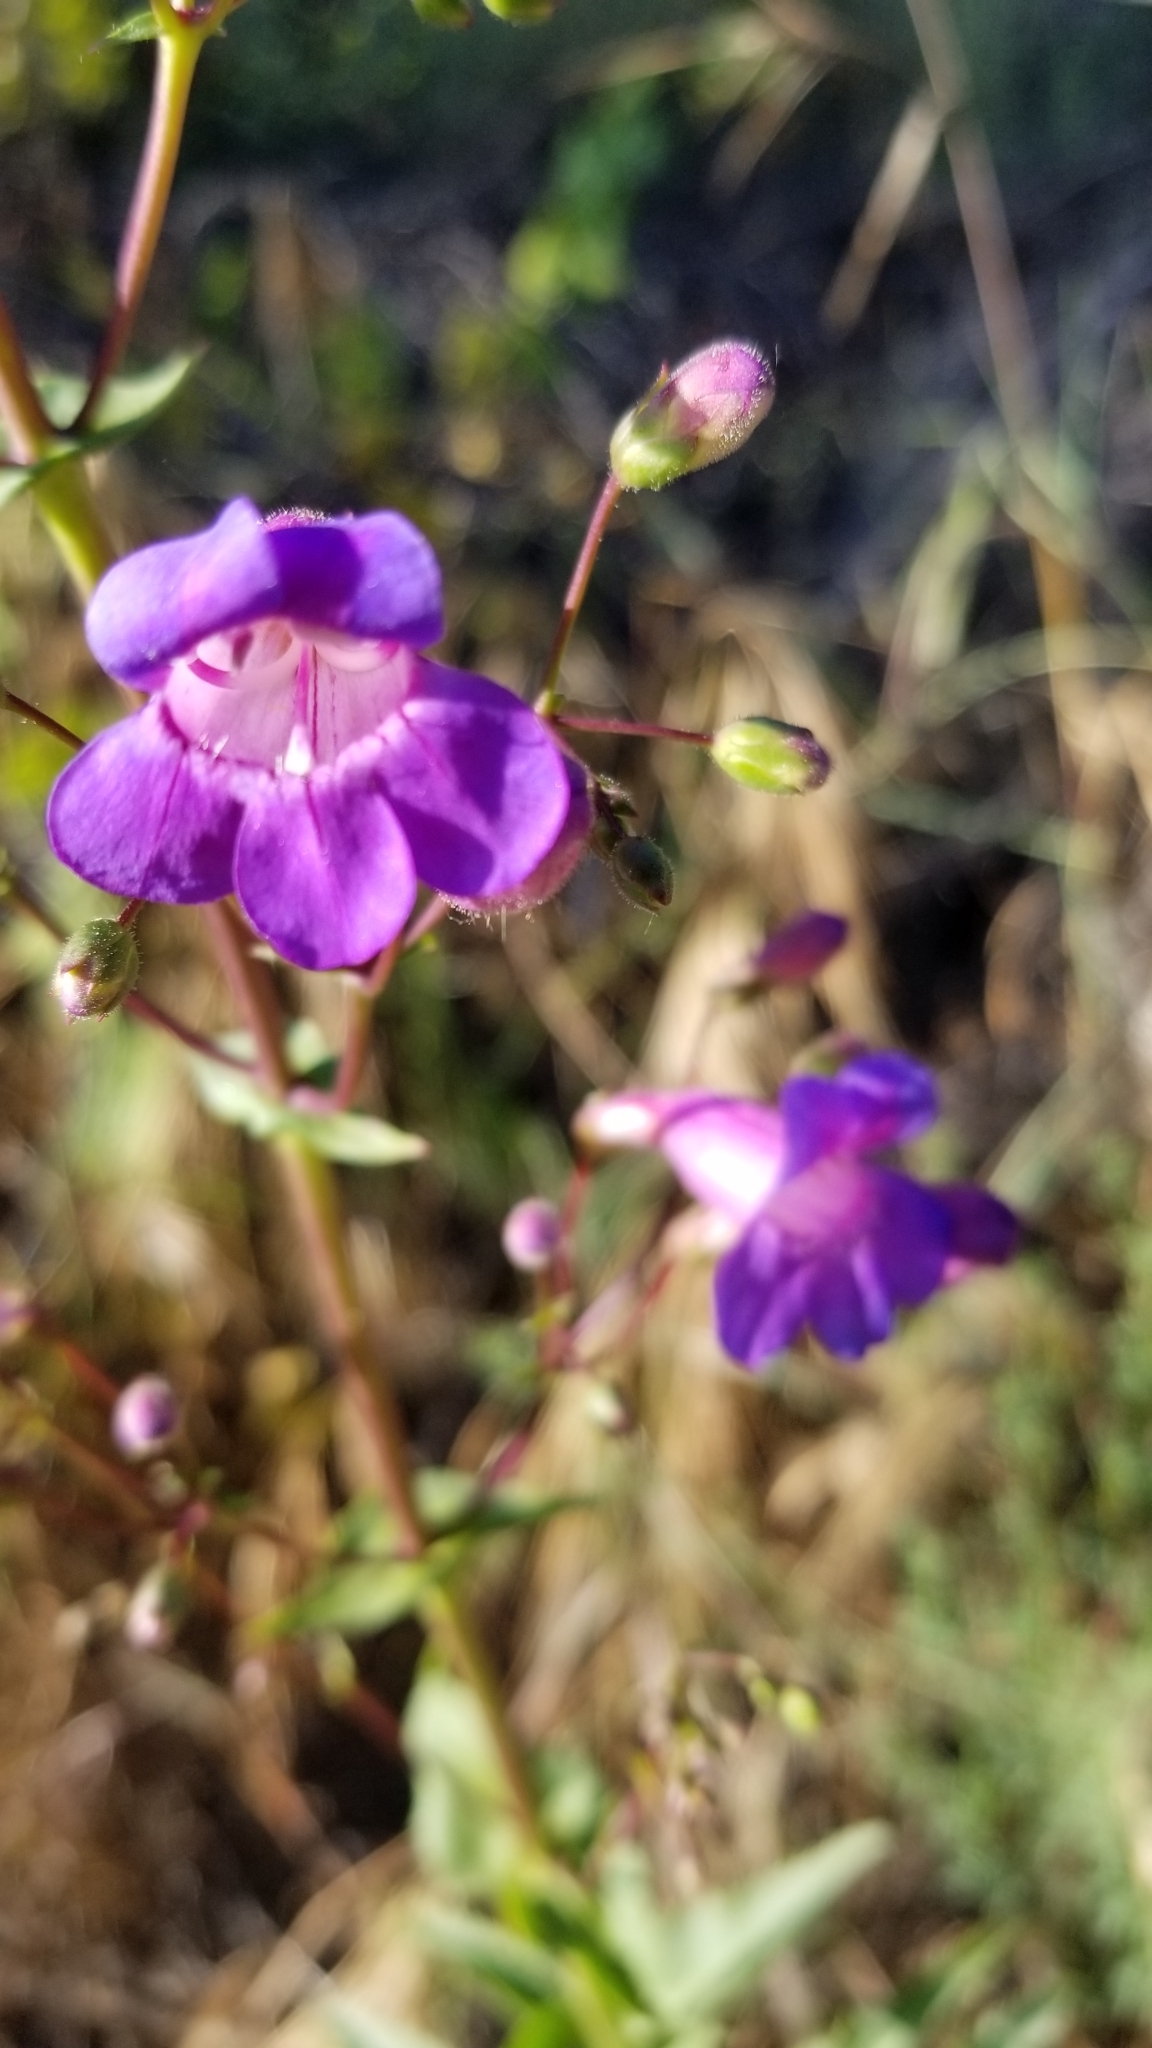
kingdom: Plantae
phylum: Tracheophyta
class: Magnoliopsida
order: Lamiales
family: Plantaginaceae
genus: Penstemon
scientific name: Penstemon spectabilis
